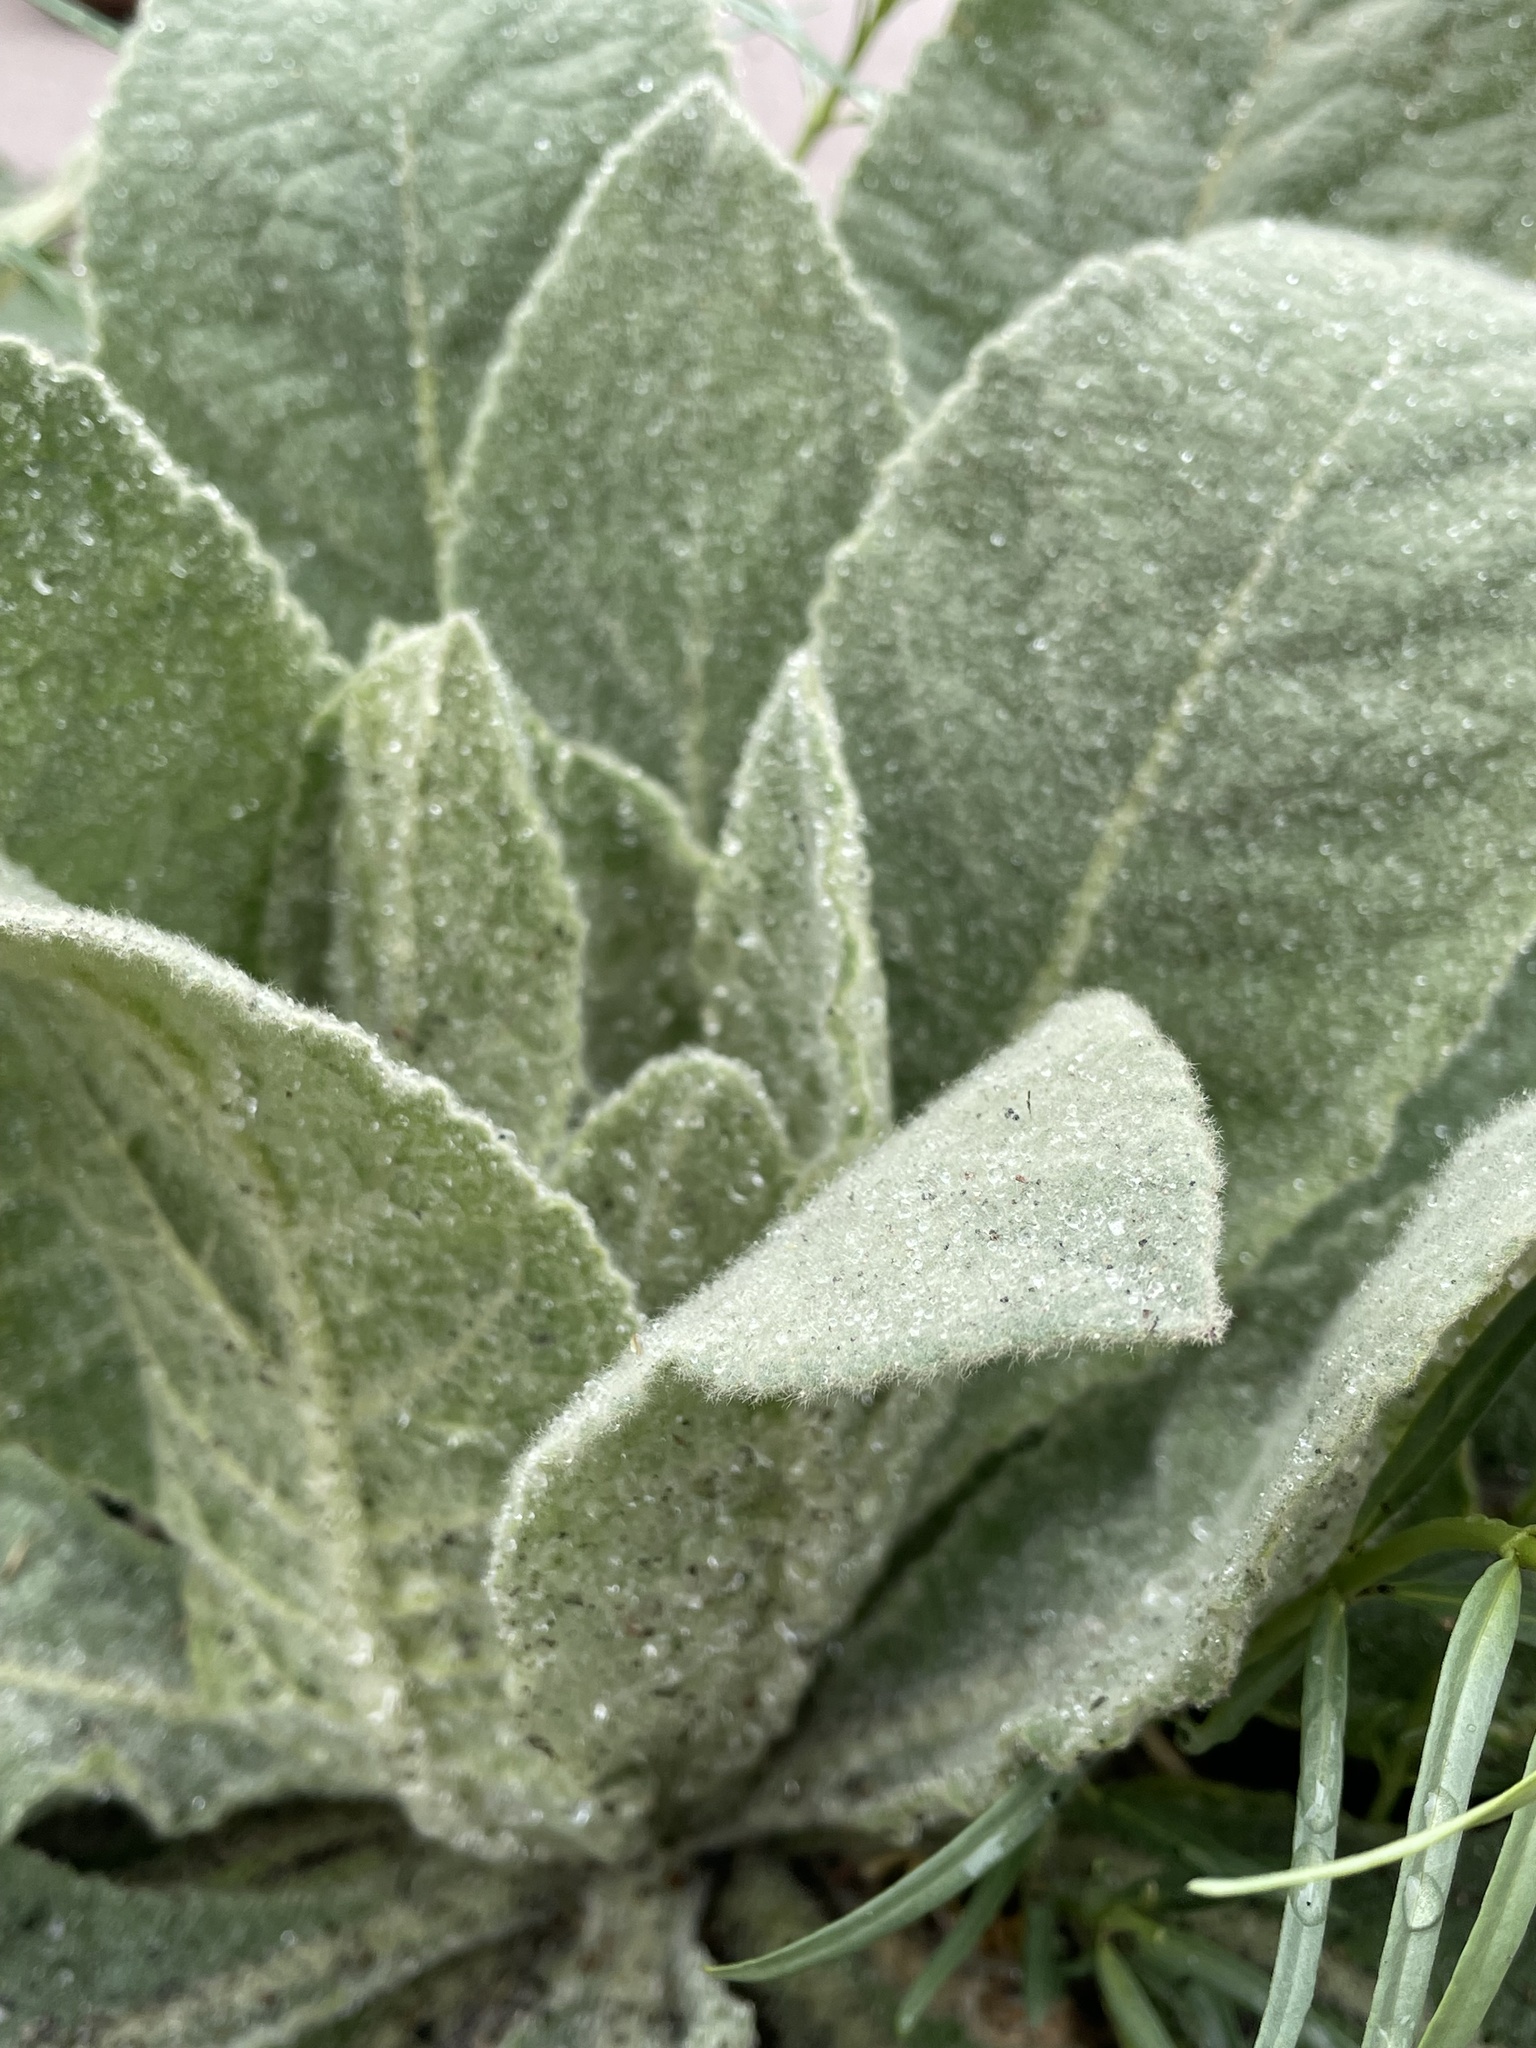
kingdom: Plantae
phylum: Tracheophyta
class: Magnoliopsida
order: Lamiales
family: Scrophulariaceae
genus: Verbascum
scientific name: Verbascum thapsus
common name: Common mullein
